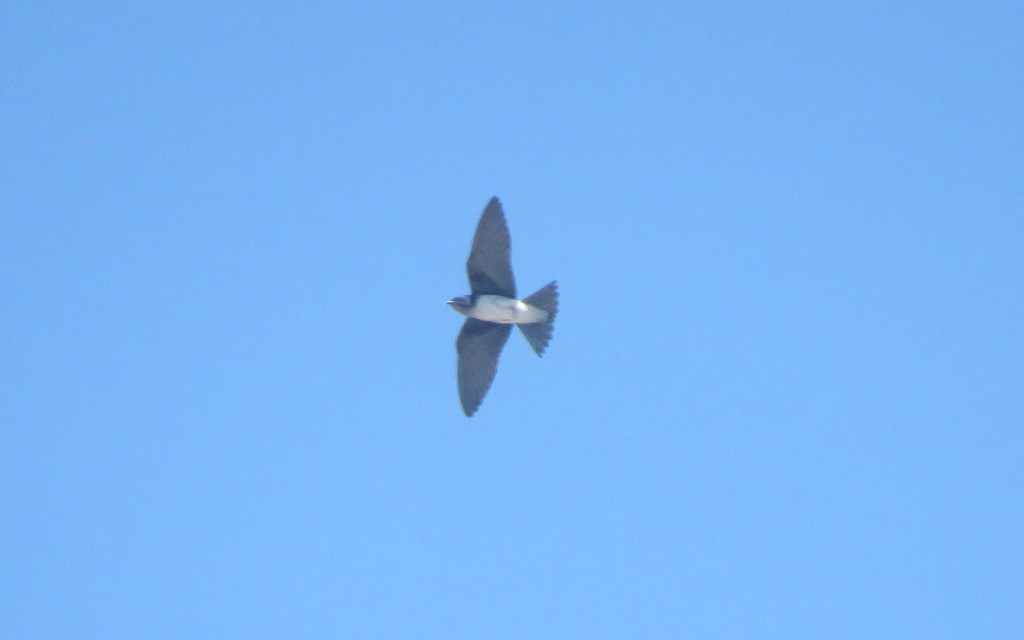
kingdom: Animalia
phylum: Chordata
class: Aves
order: Passeriformes
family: Hirundinidae
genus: Progne
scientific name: Progne chalybea
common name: Grey-breasted martin
